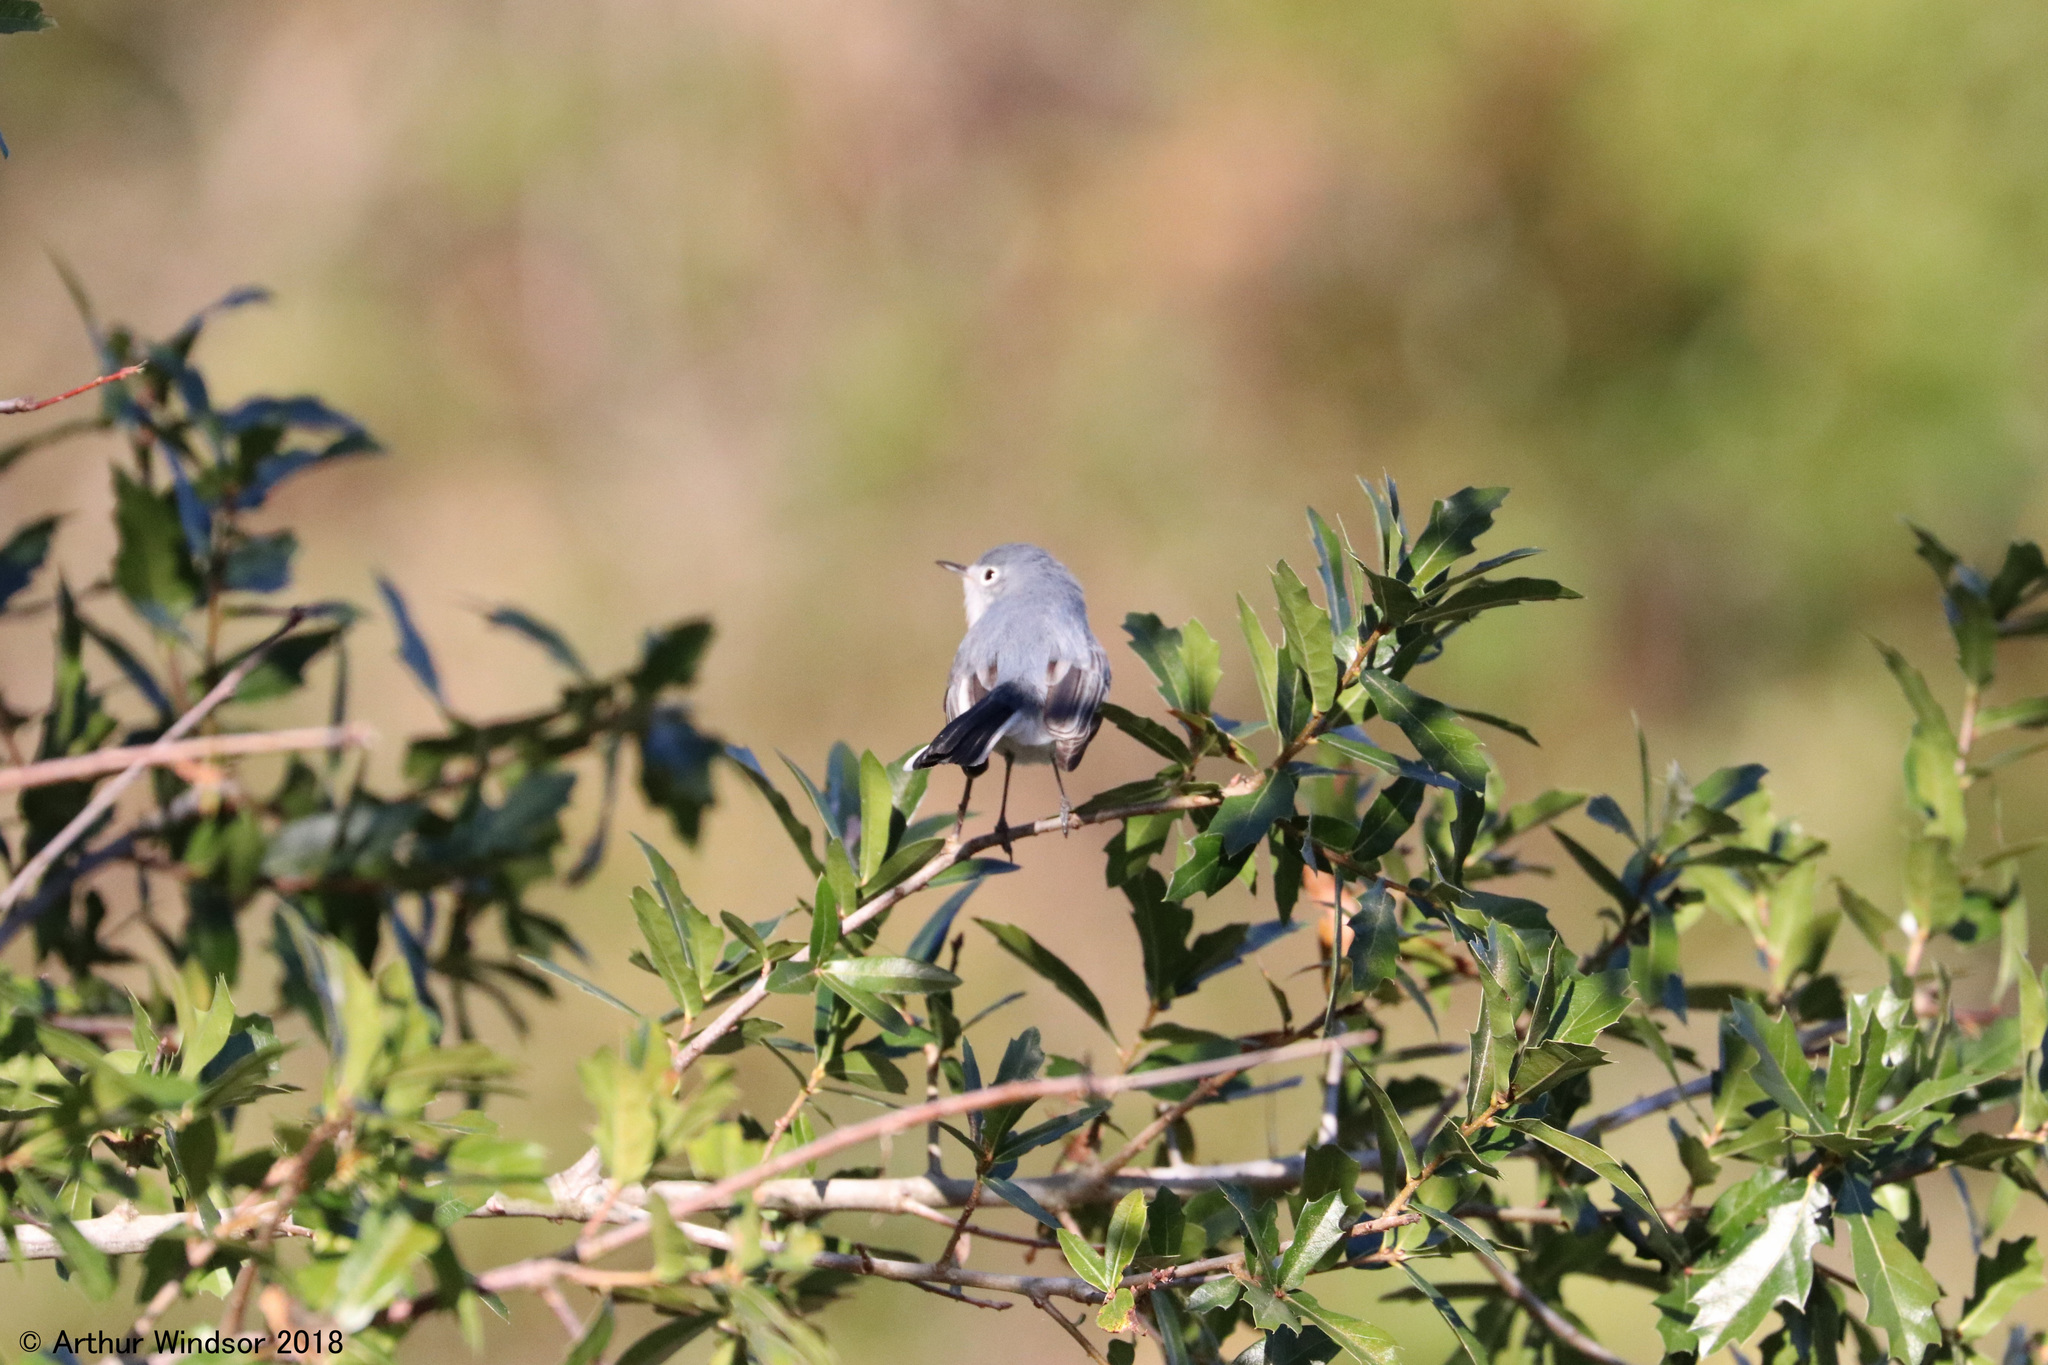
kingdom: Animalia
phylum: Chordata
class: Aves
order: Passeriformes
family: Polioptilidae
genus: Polioptila
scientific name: Polioptila caerulea
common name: Blue-gray gnatcatcher
